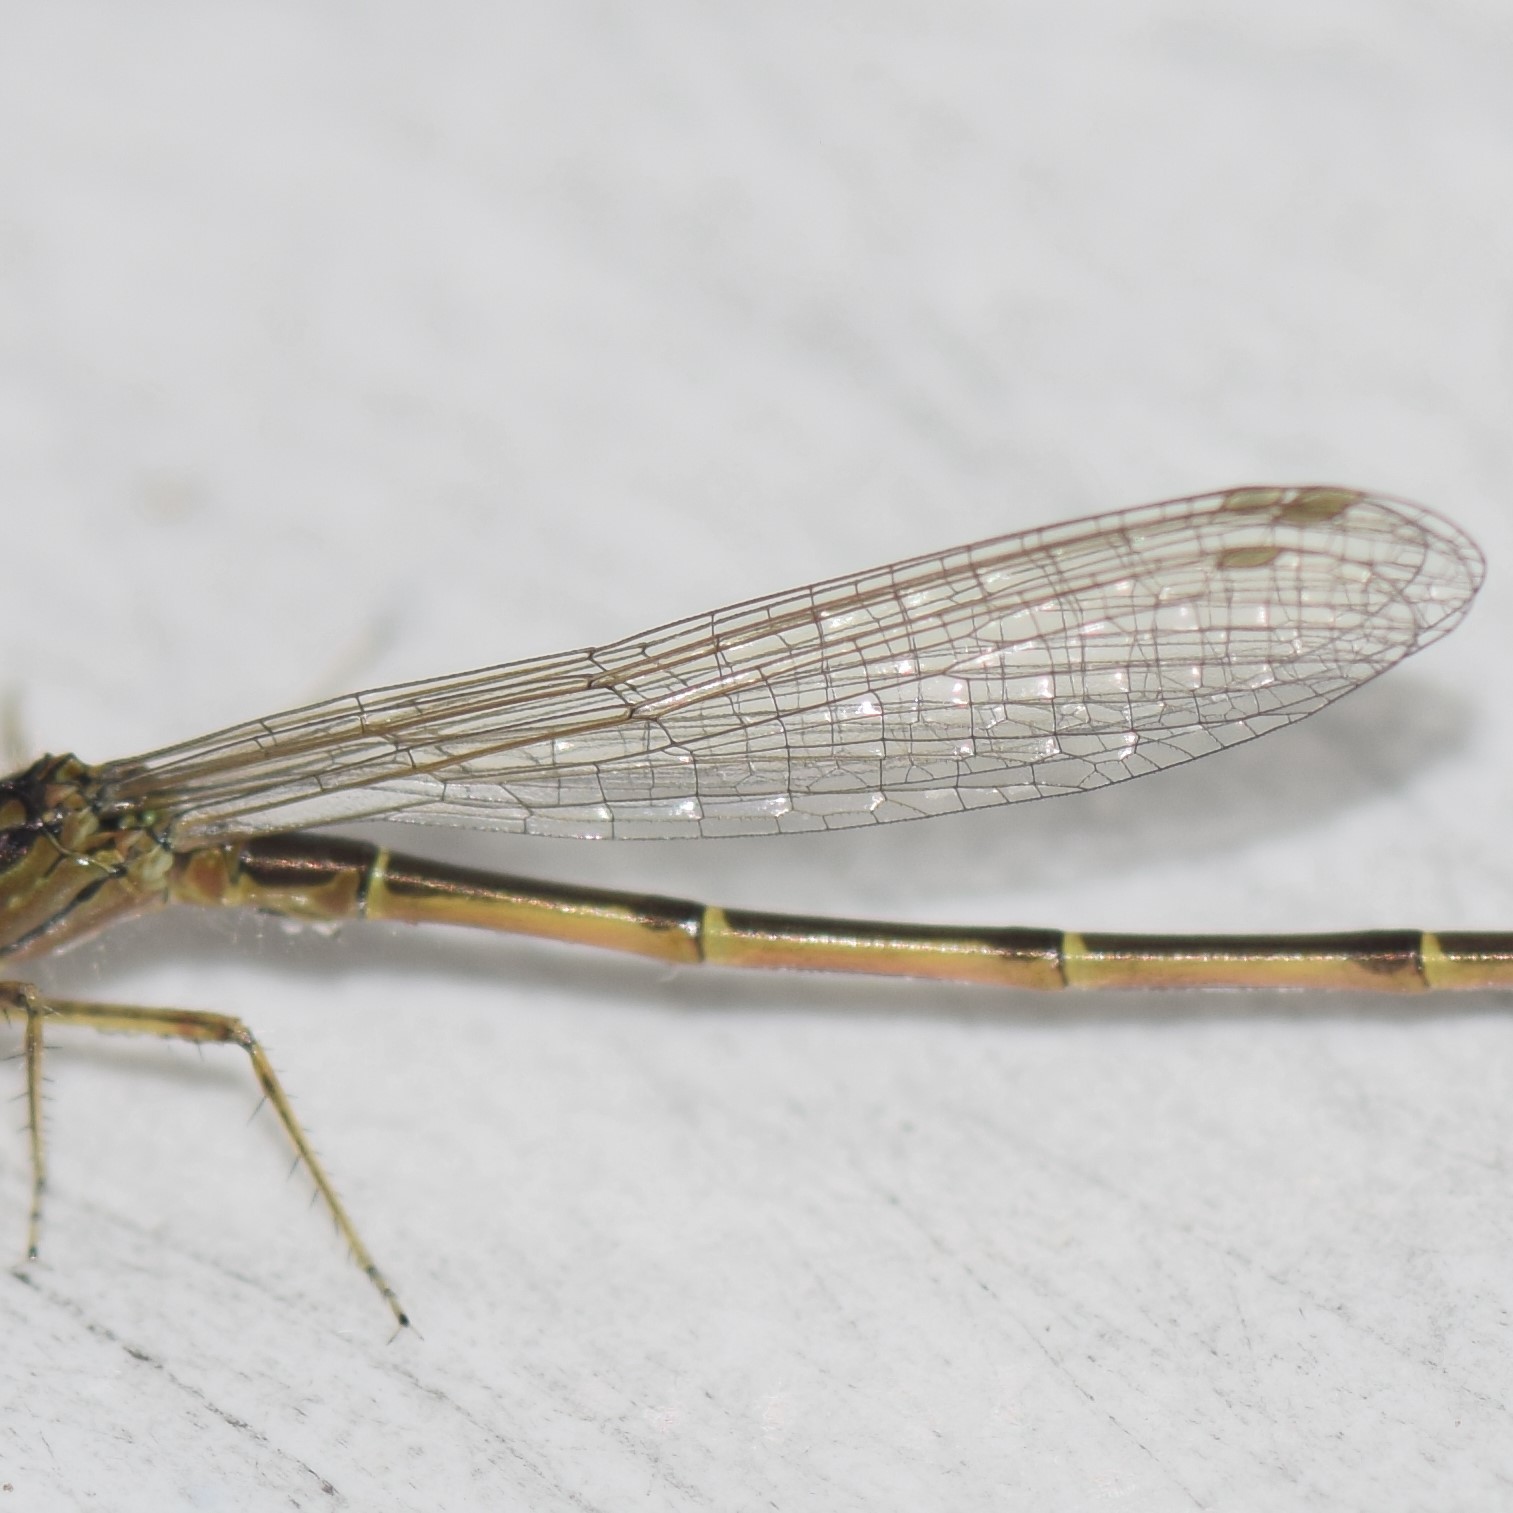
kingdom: Animalia
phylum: Arthropoda
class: Insecta
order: Odonata
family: Coenagrionidae
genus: Ischnura
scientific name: Ischnura posita
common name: Fragile forktail
